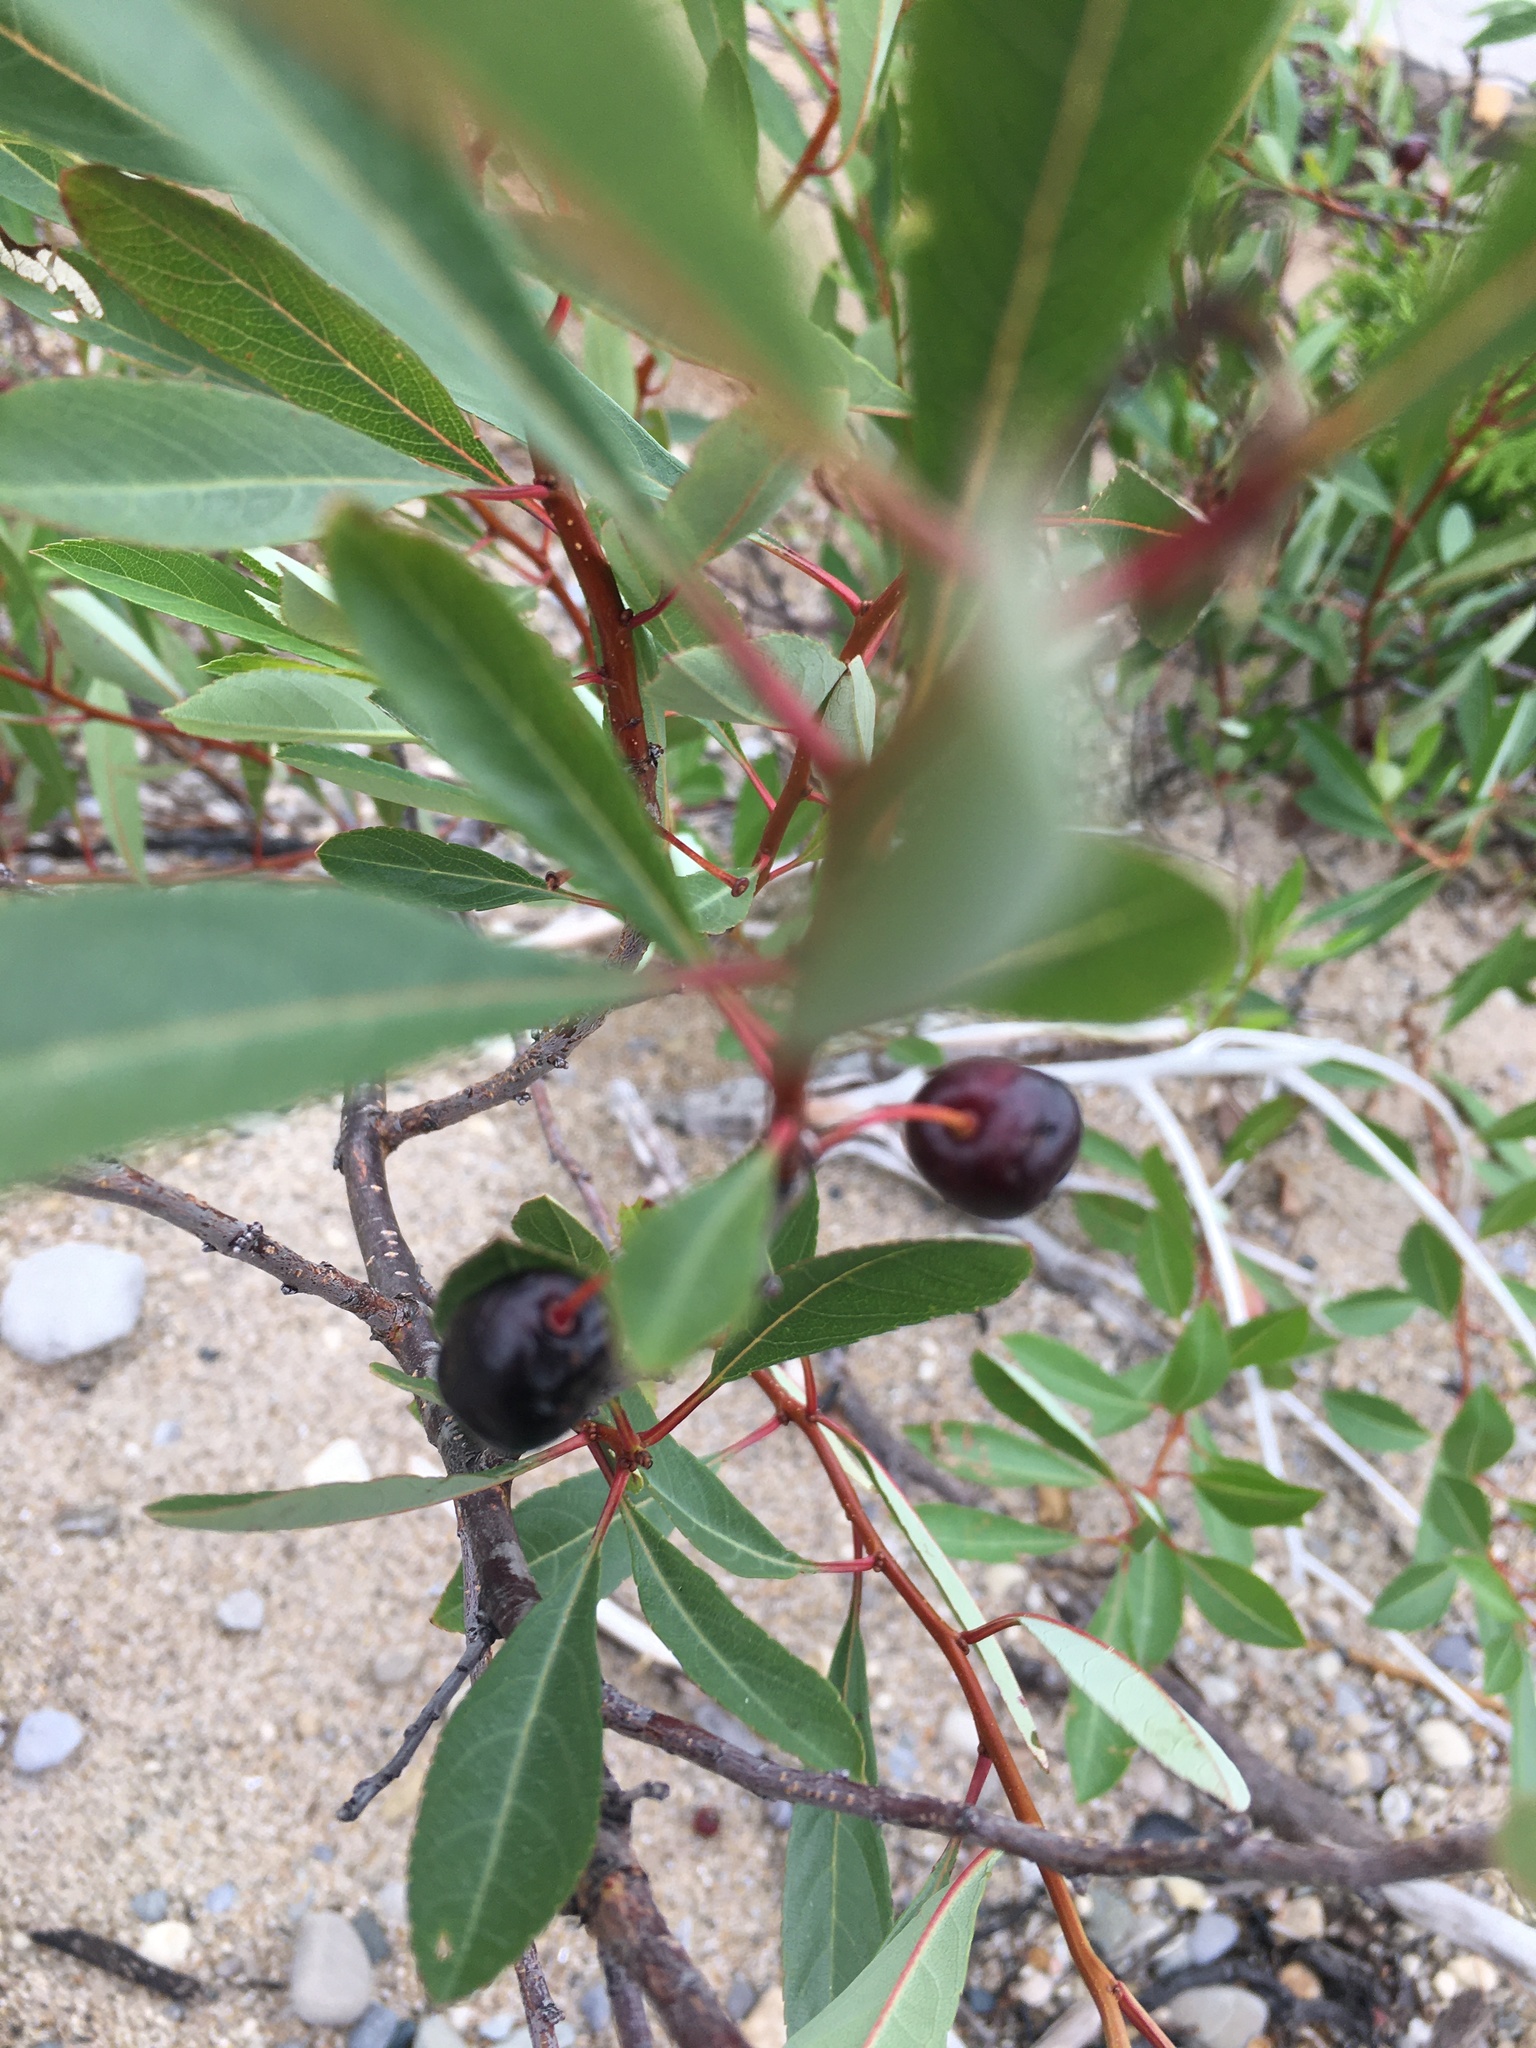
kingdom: Plantae
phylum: Tracheophyta
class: Magnoliopsida
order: Rosales
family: Rosaceae
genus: Prunus
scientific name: Prunus pumila
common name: Dwarf cherry
